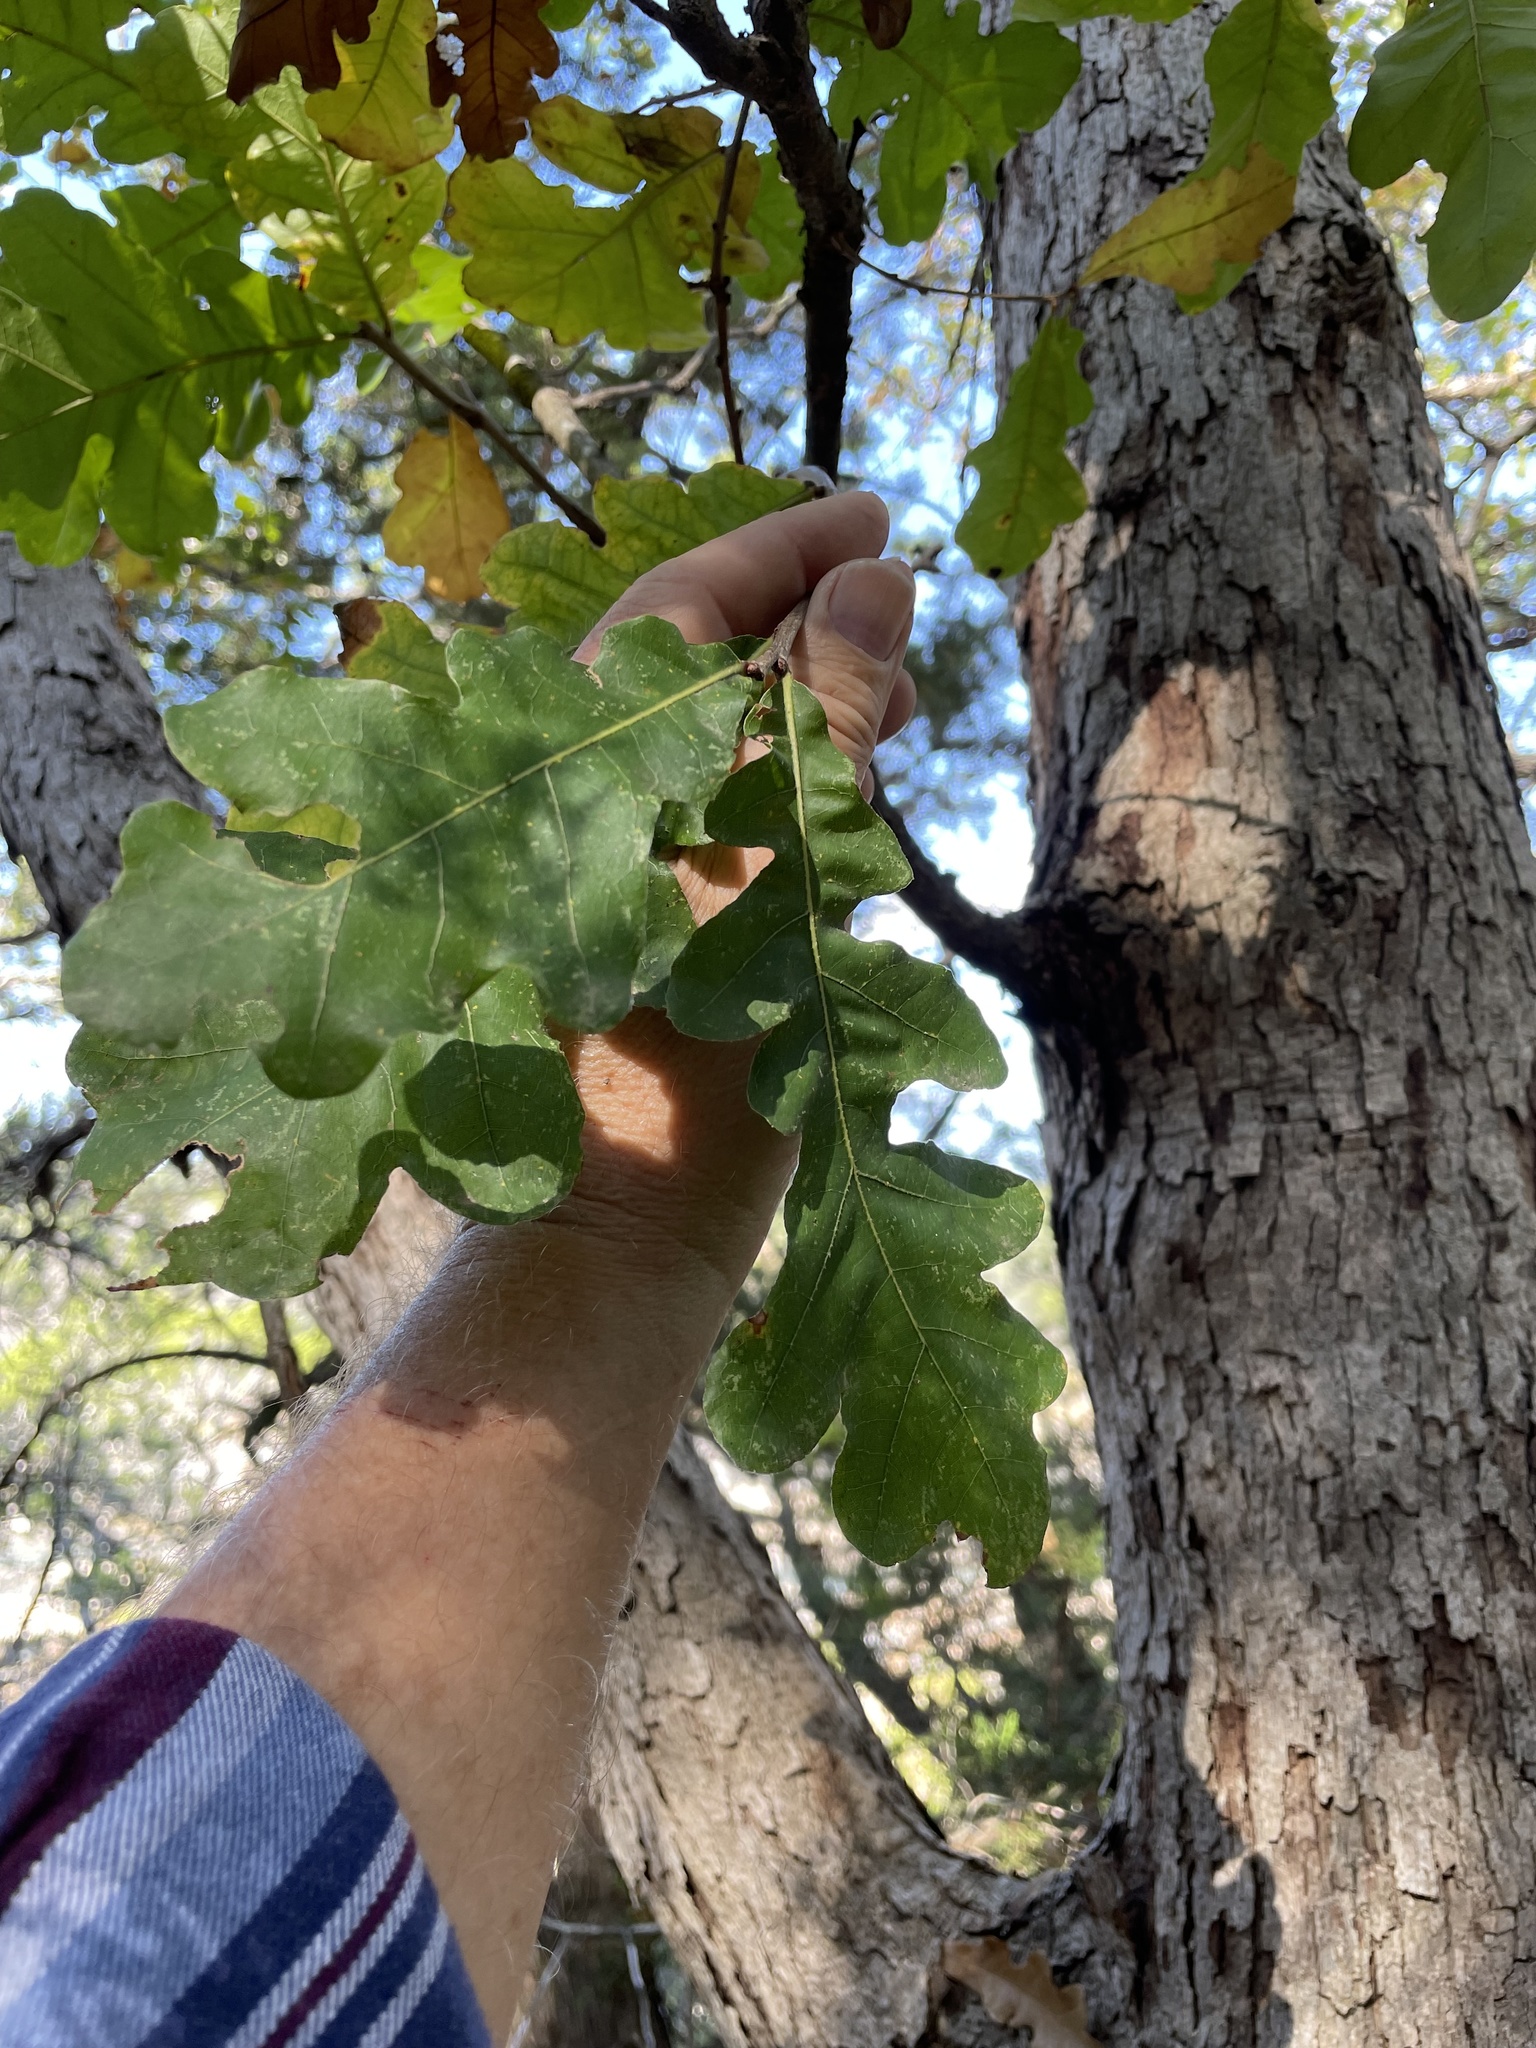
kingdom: Plantae
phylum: Tracheophyta
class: Magnoliopsida
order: Fagales
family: Fagaceae
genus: Quercus
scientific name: Quercus sinuata
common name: Durand oak
